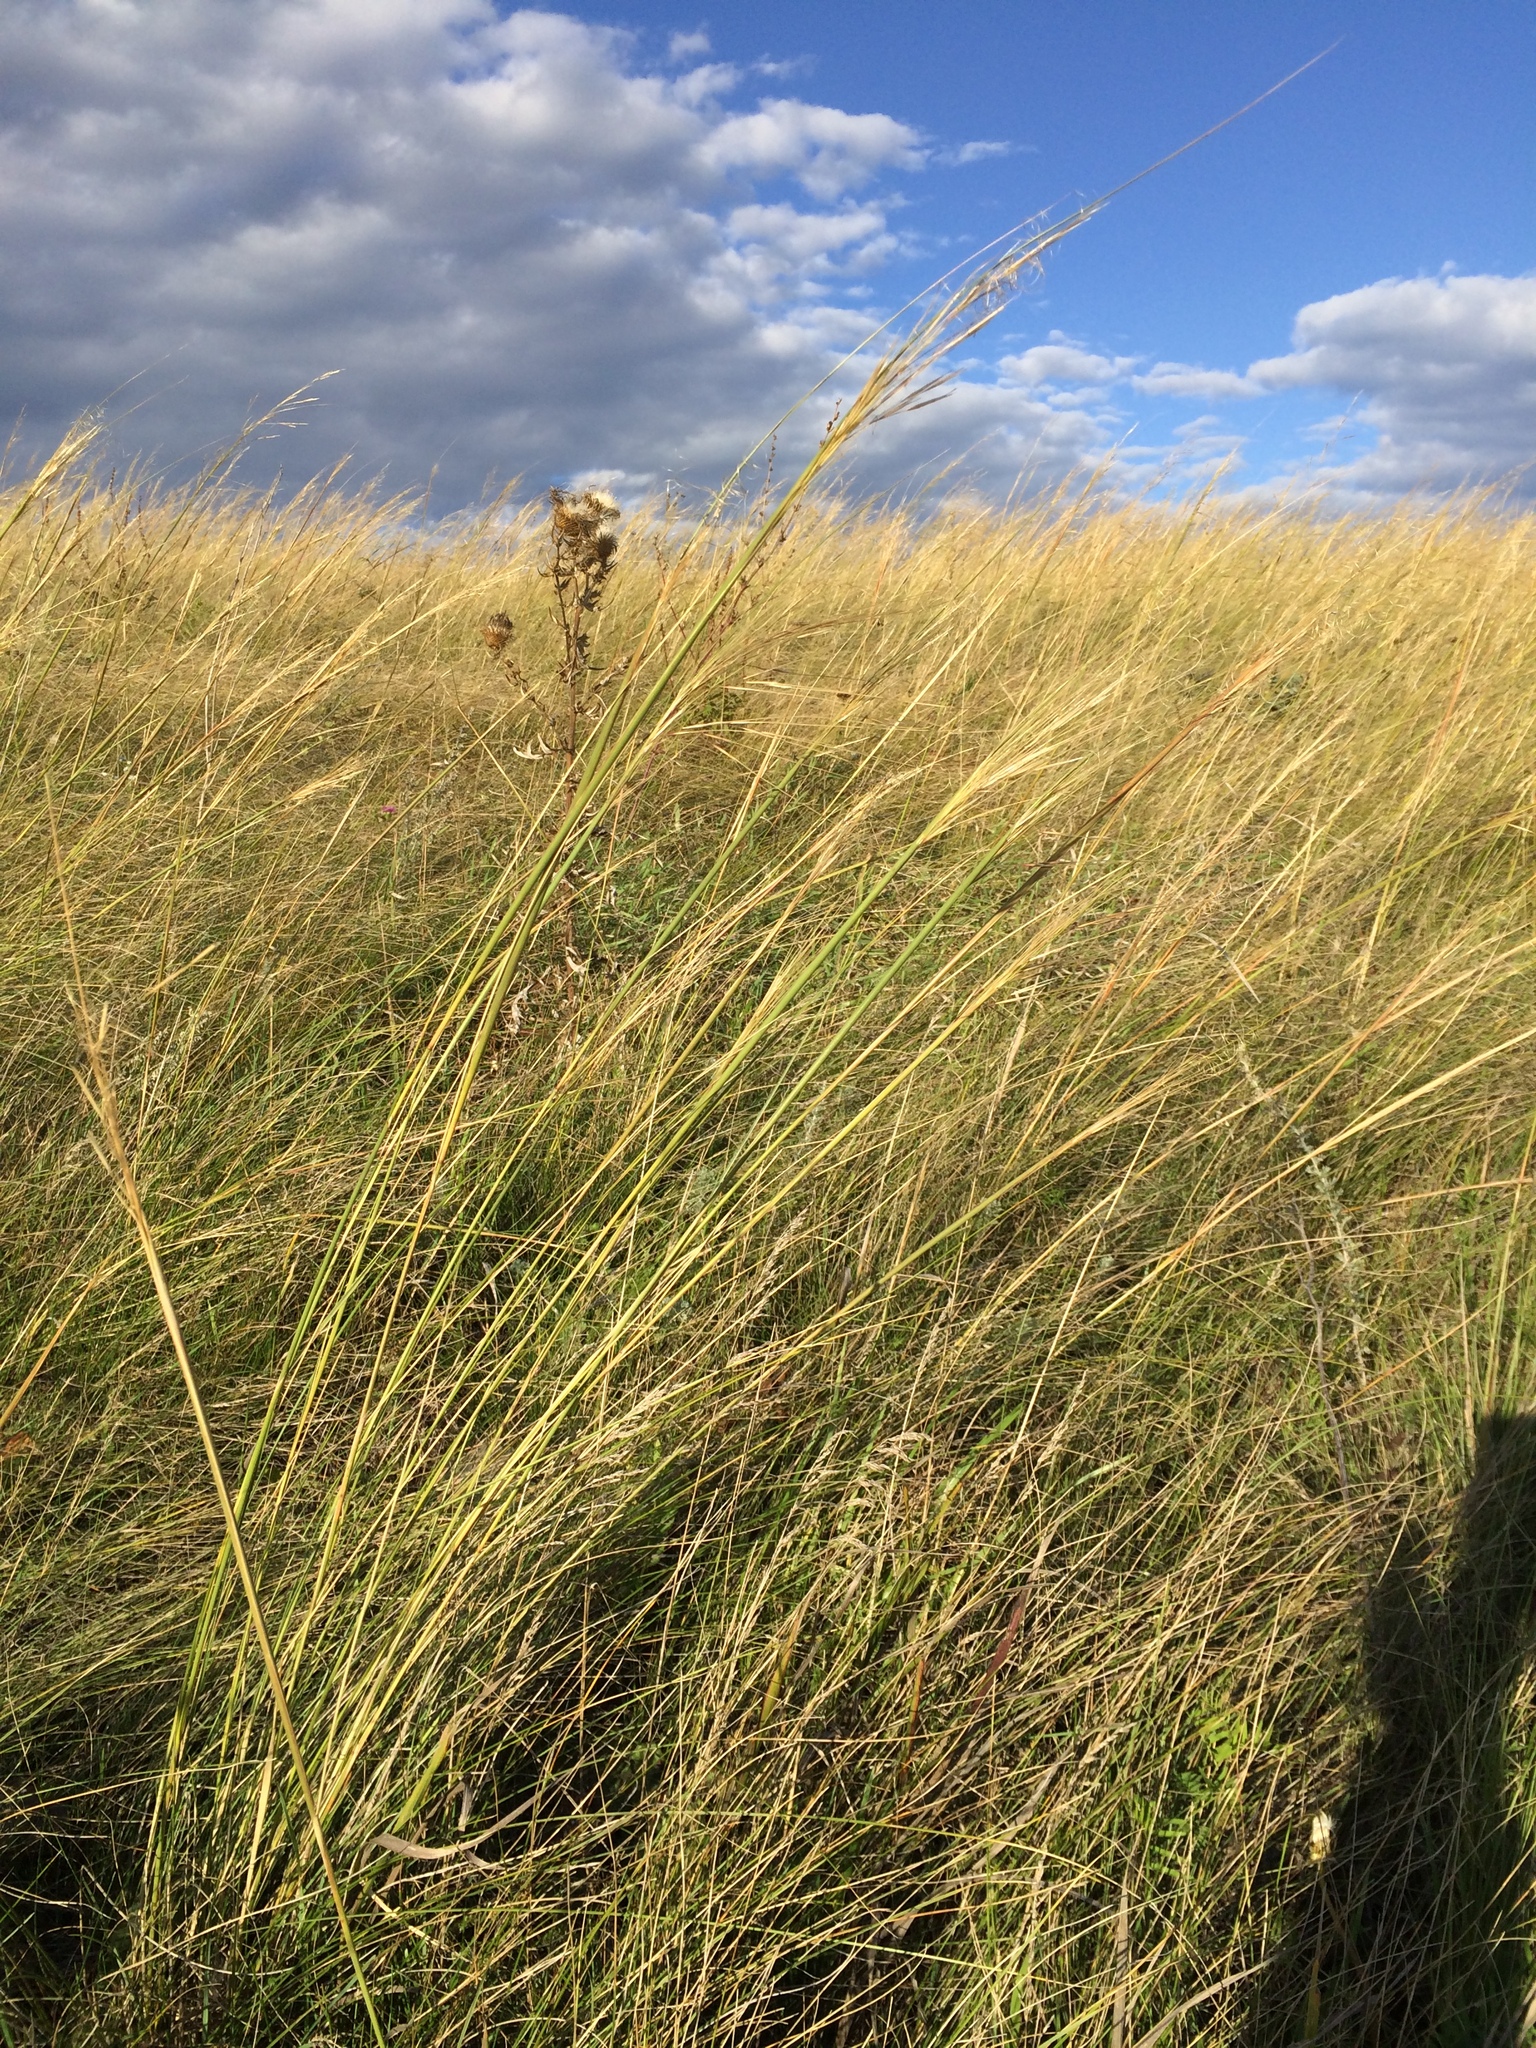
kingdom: Plantae
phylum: Tracheophyta
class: Liliopsida
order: Poales
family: Poaceae
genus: Stipa
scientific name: Stipa capillata
